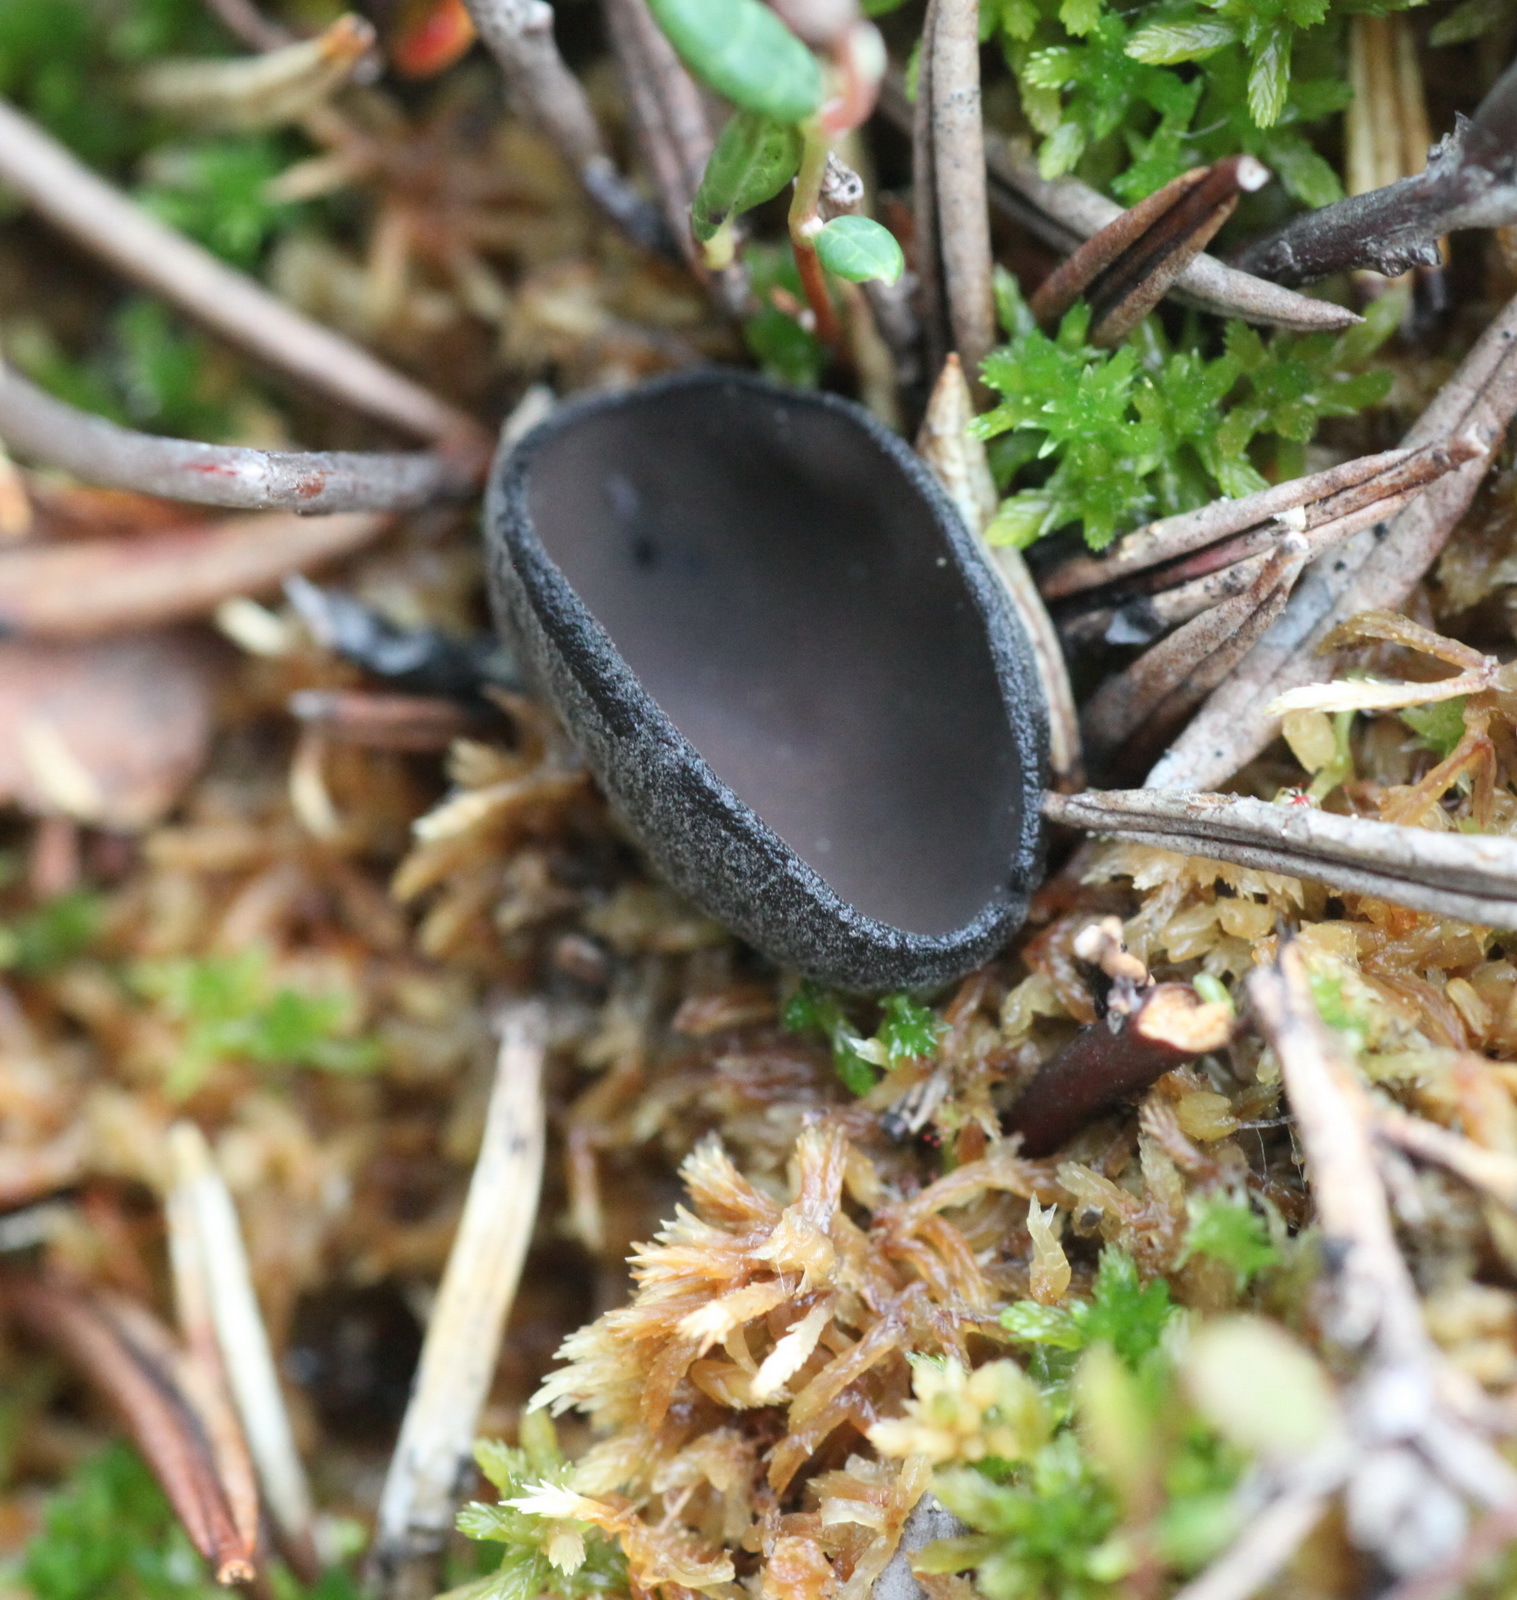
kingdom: Fungi
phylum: Ascomycota
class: Pezizomycetes
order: Pezizales
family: Sarcosomataceae
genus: Pseudoplectania
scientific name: Pseudoplectania sphagnophila
